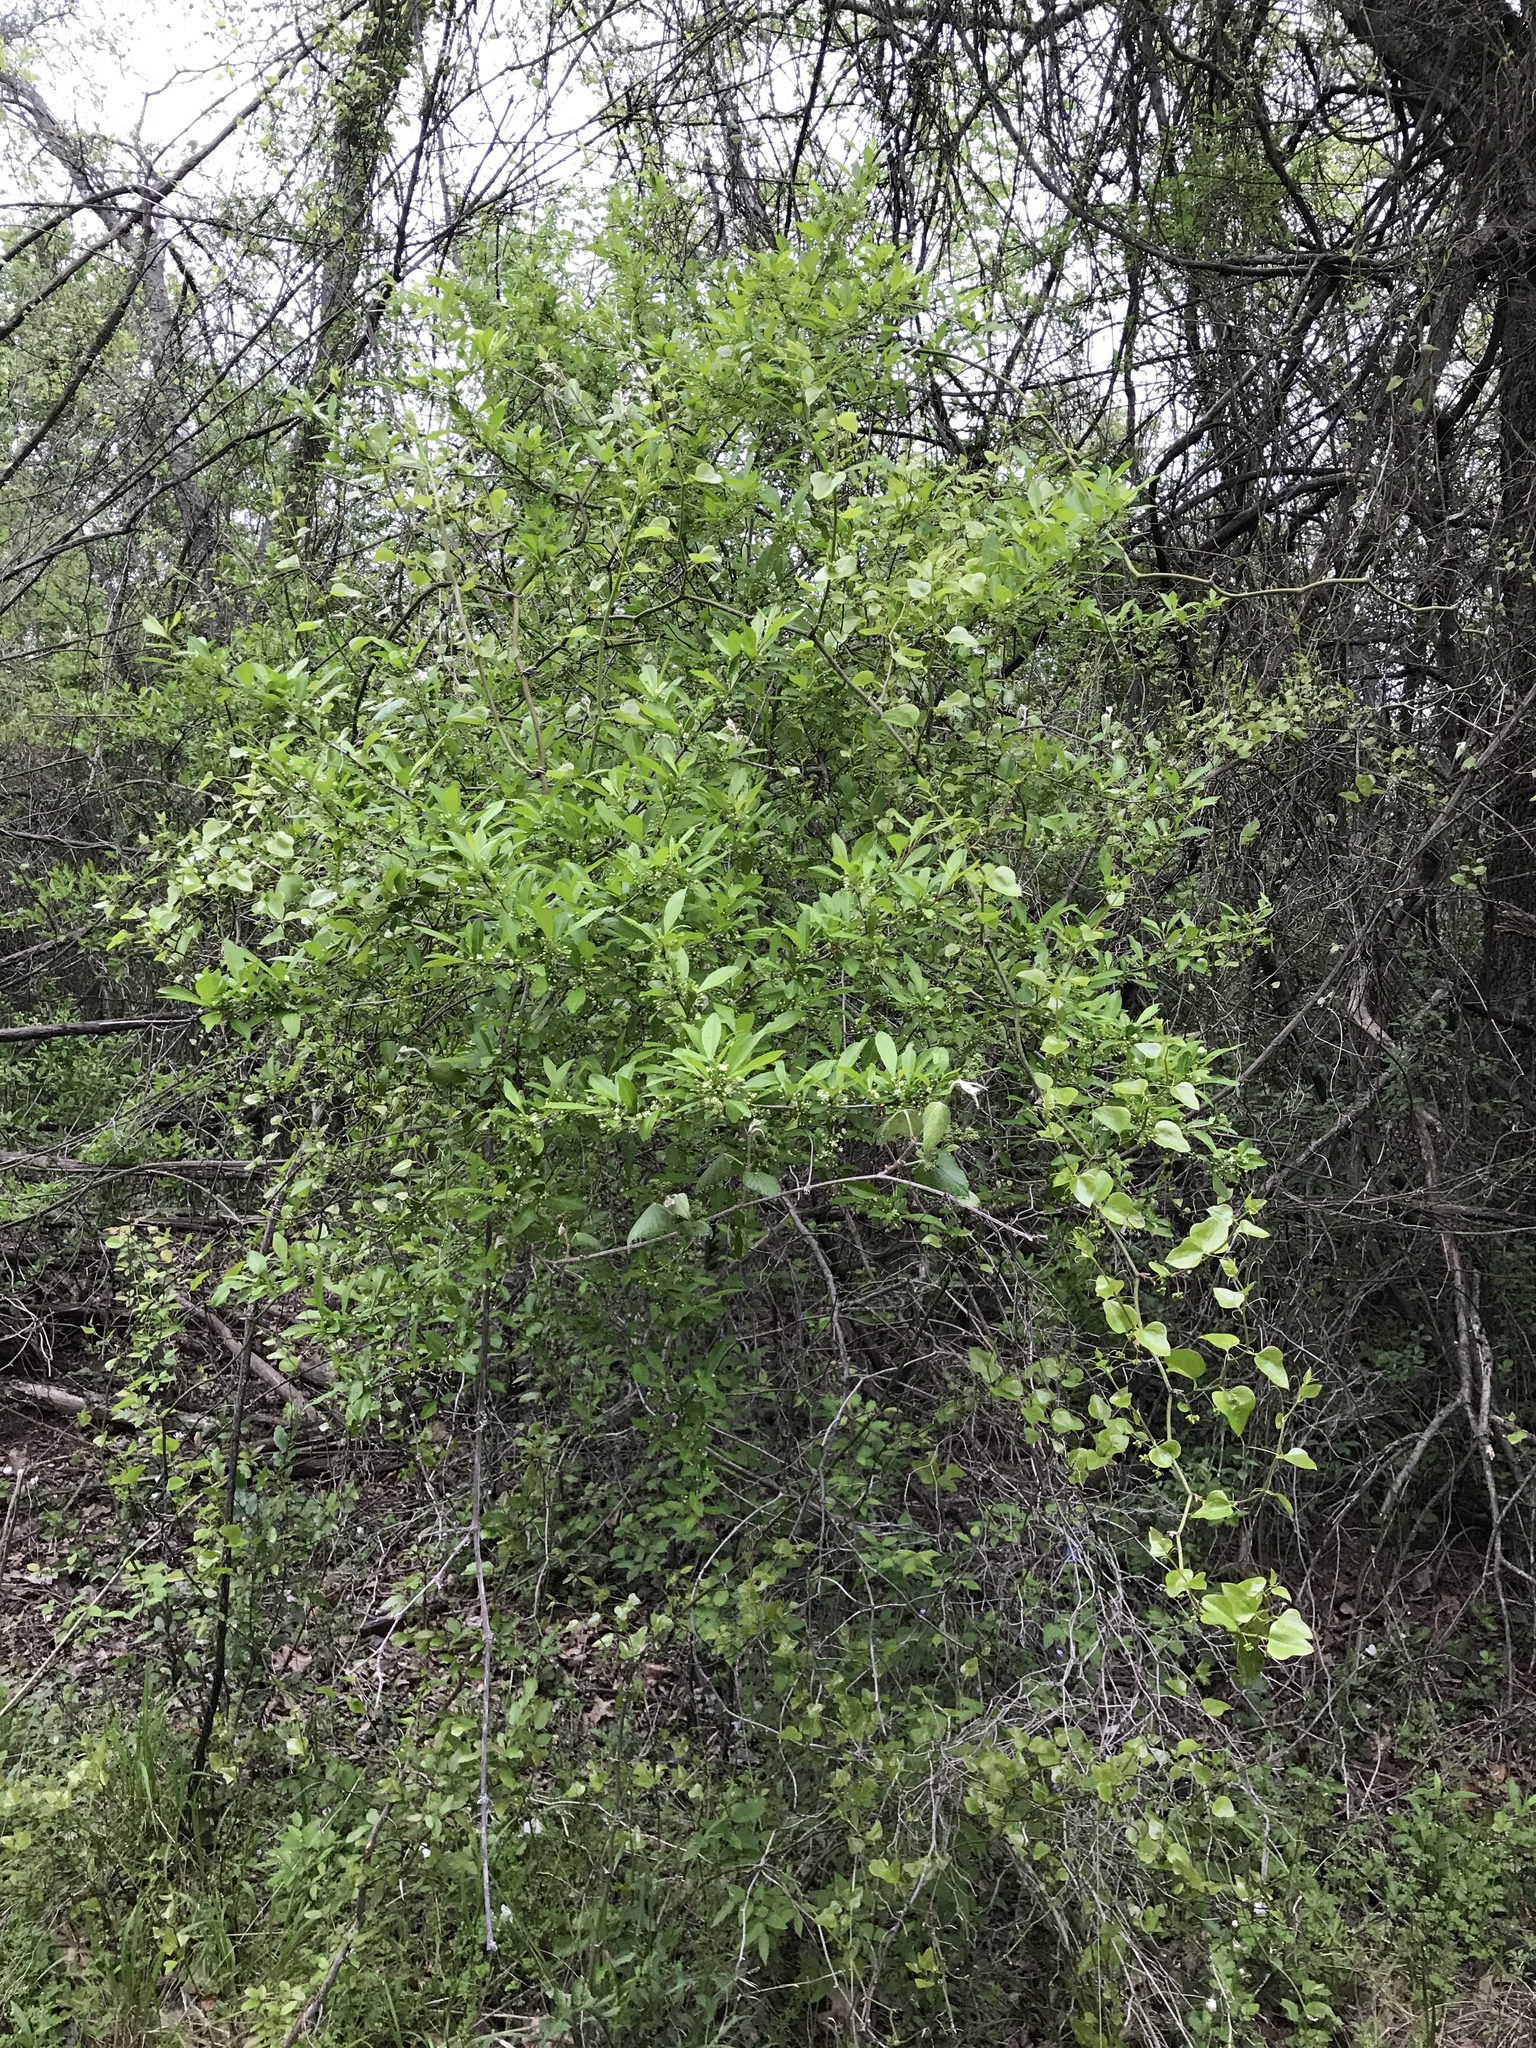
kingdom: Plantae
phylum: Tracheophyta
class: Magnoliopsida
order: Aquifoliales
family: Aquifoliaceae
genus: Ilex
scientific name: Ilex decidua
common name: Possum-haw
